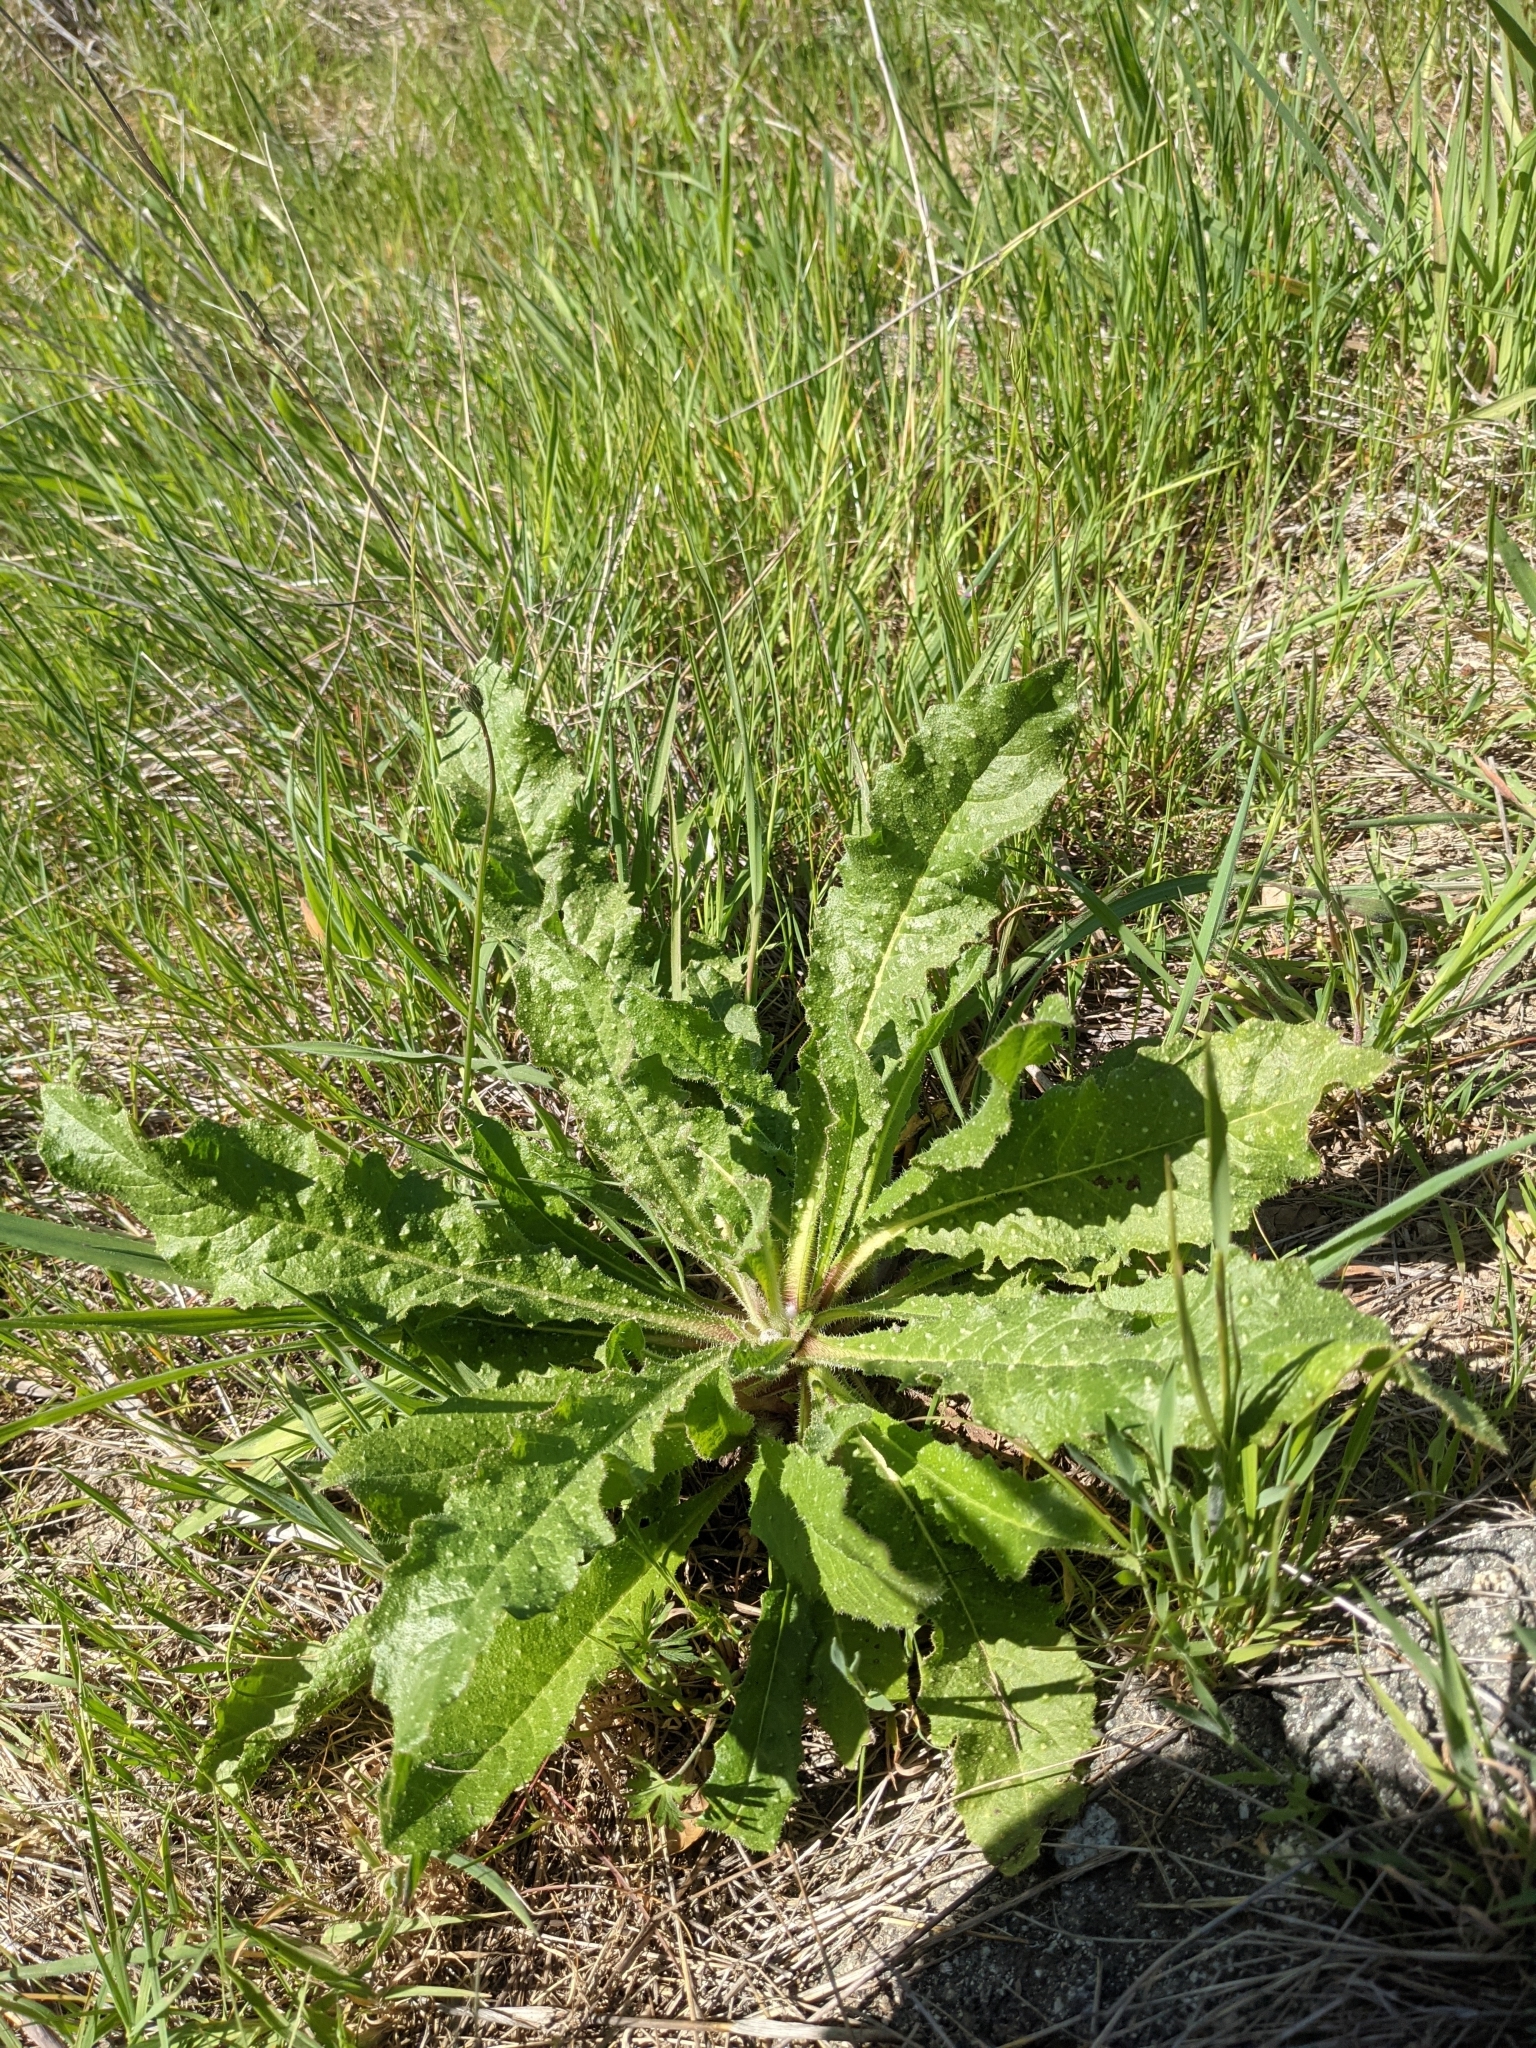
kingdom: Plantae
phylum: Tracheophyta
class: Magnoliopsida
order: Asterales
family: Asteraceae
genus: Helminthotheca
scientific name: Helminthotheca echioides
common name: Ox-tongue
